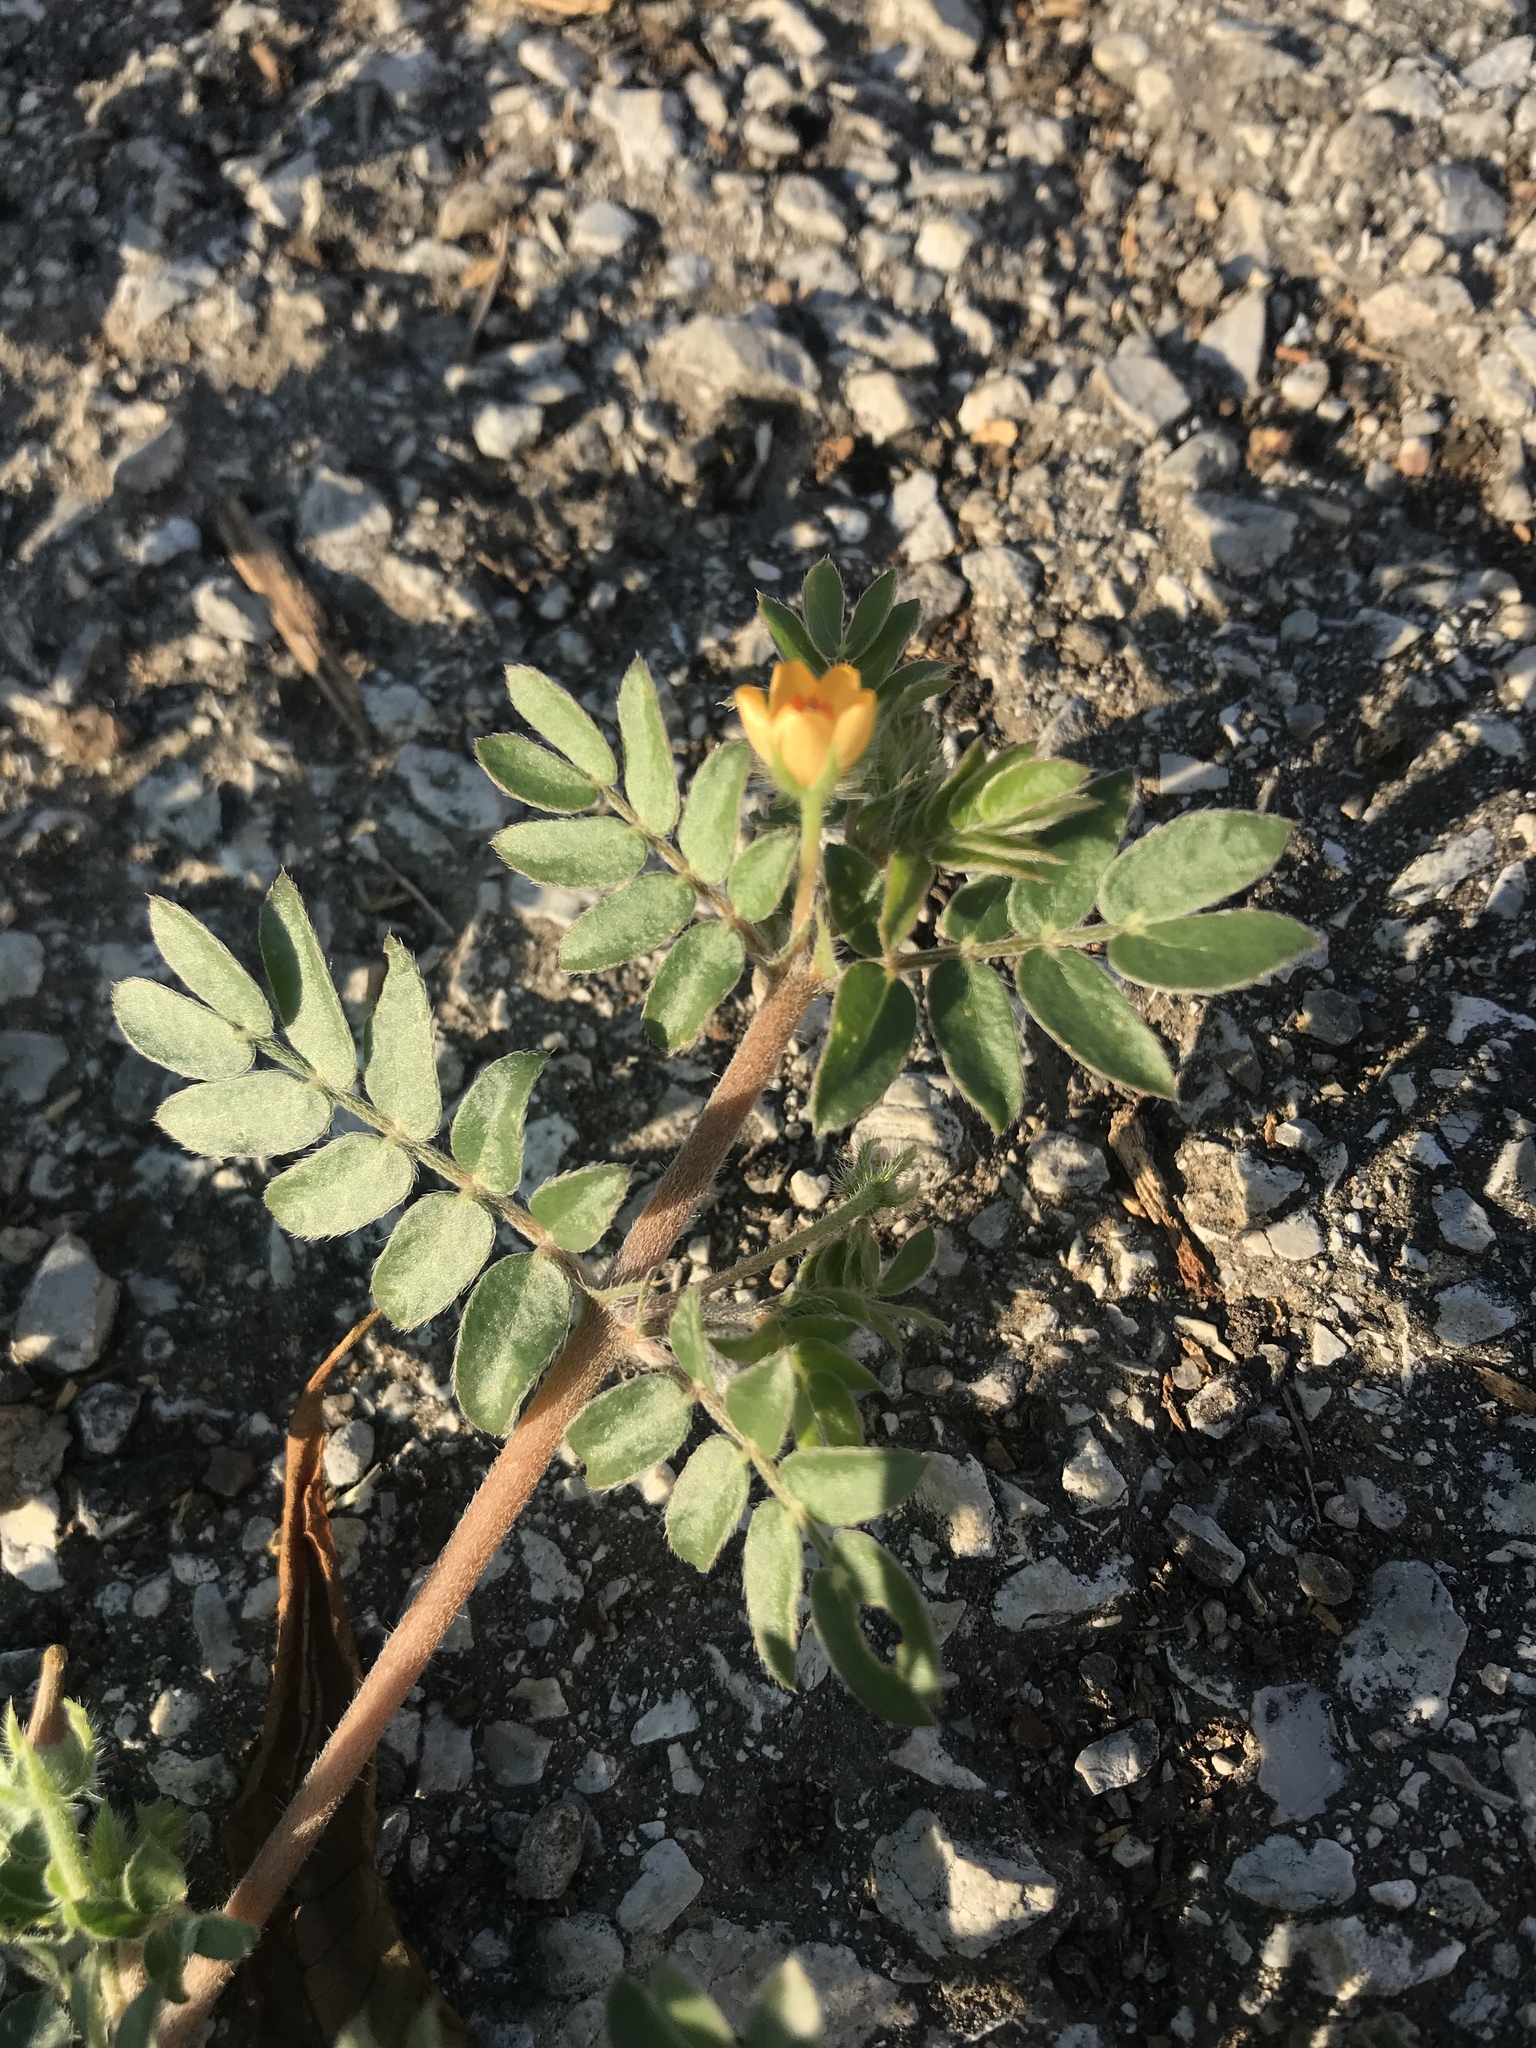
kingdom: Plantae
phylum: Tracheophyta
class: Magnoliopsida
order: Zygophyllales
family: Zygophyllaceae
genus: Kallstroemia
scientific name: Kallstroemia parviflora
